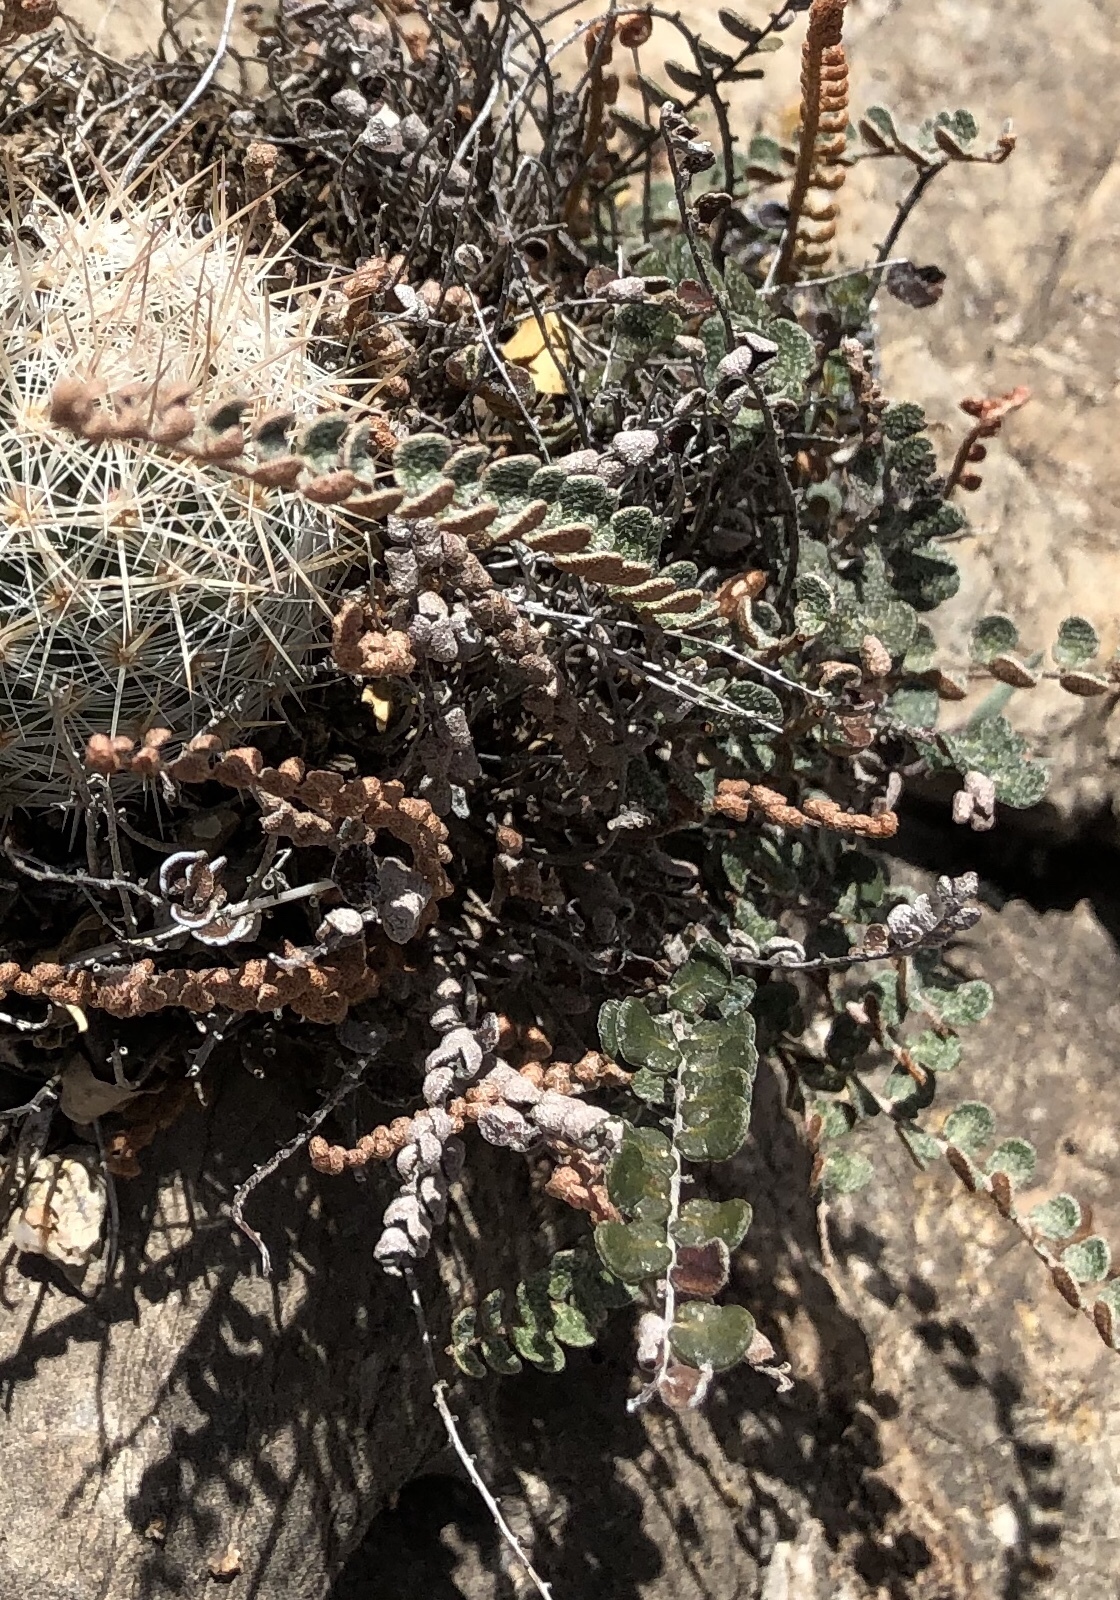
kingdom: Plantae
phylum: Tracheophyta
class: Polypodiopsida
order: Polypodiales
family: Pteridaceae
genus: Astrolepis
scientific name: Astrolepis cochisensis
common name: Scaly cloak fern
